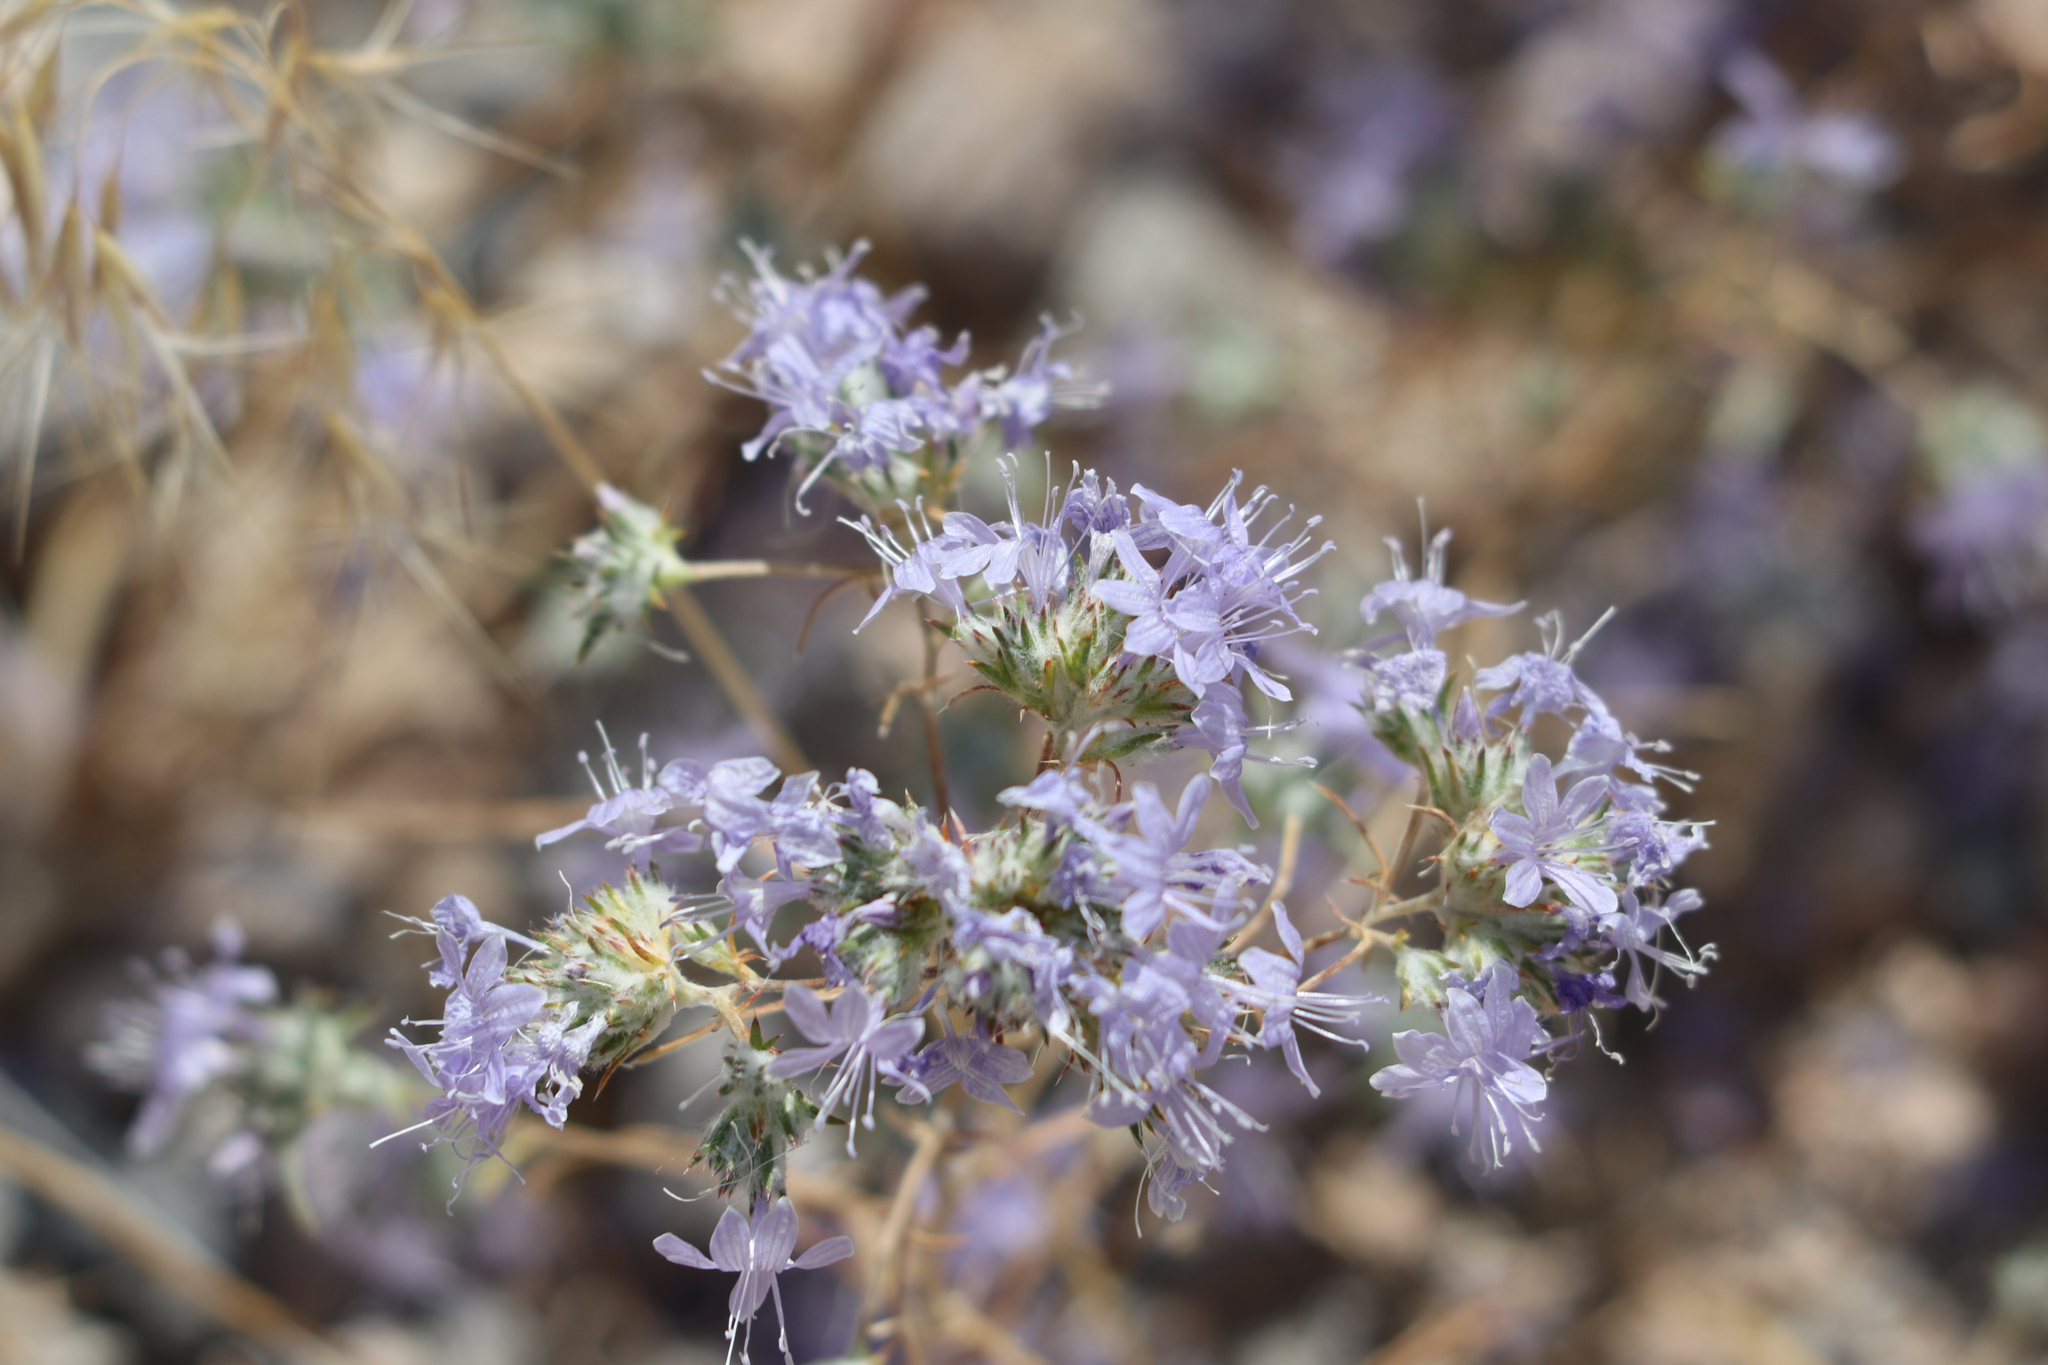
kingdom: Plantae
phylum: Tracheophyta
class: Magnoliopsida
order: Ericales
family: Polemoniaceae
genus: Eriastrum
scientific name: Eriastrum eremicum
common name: Desert eriastrum
